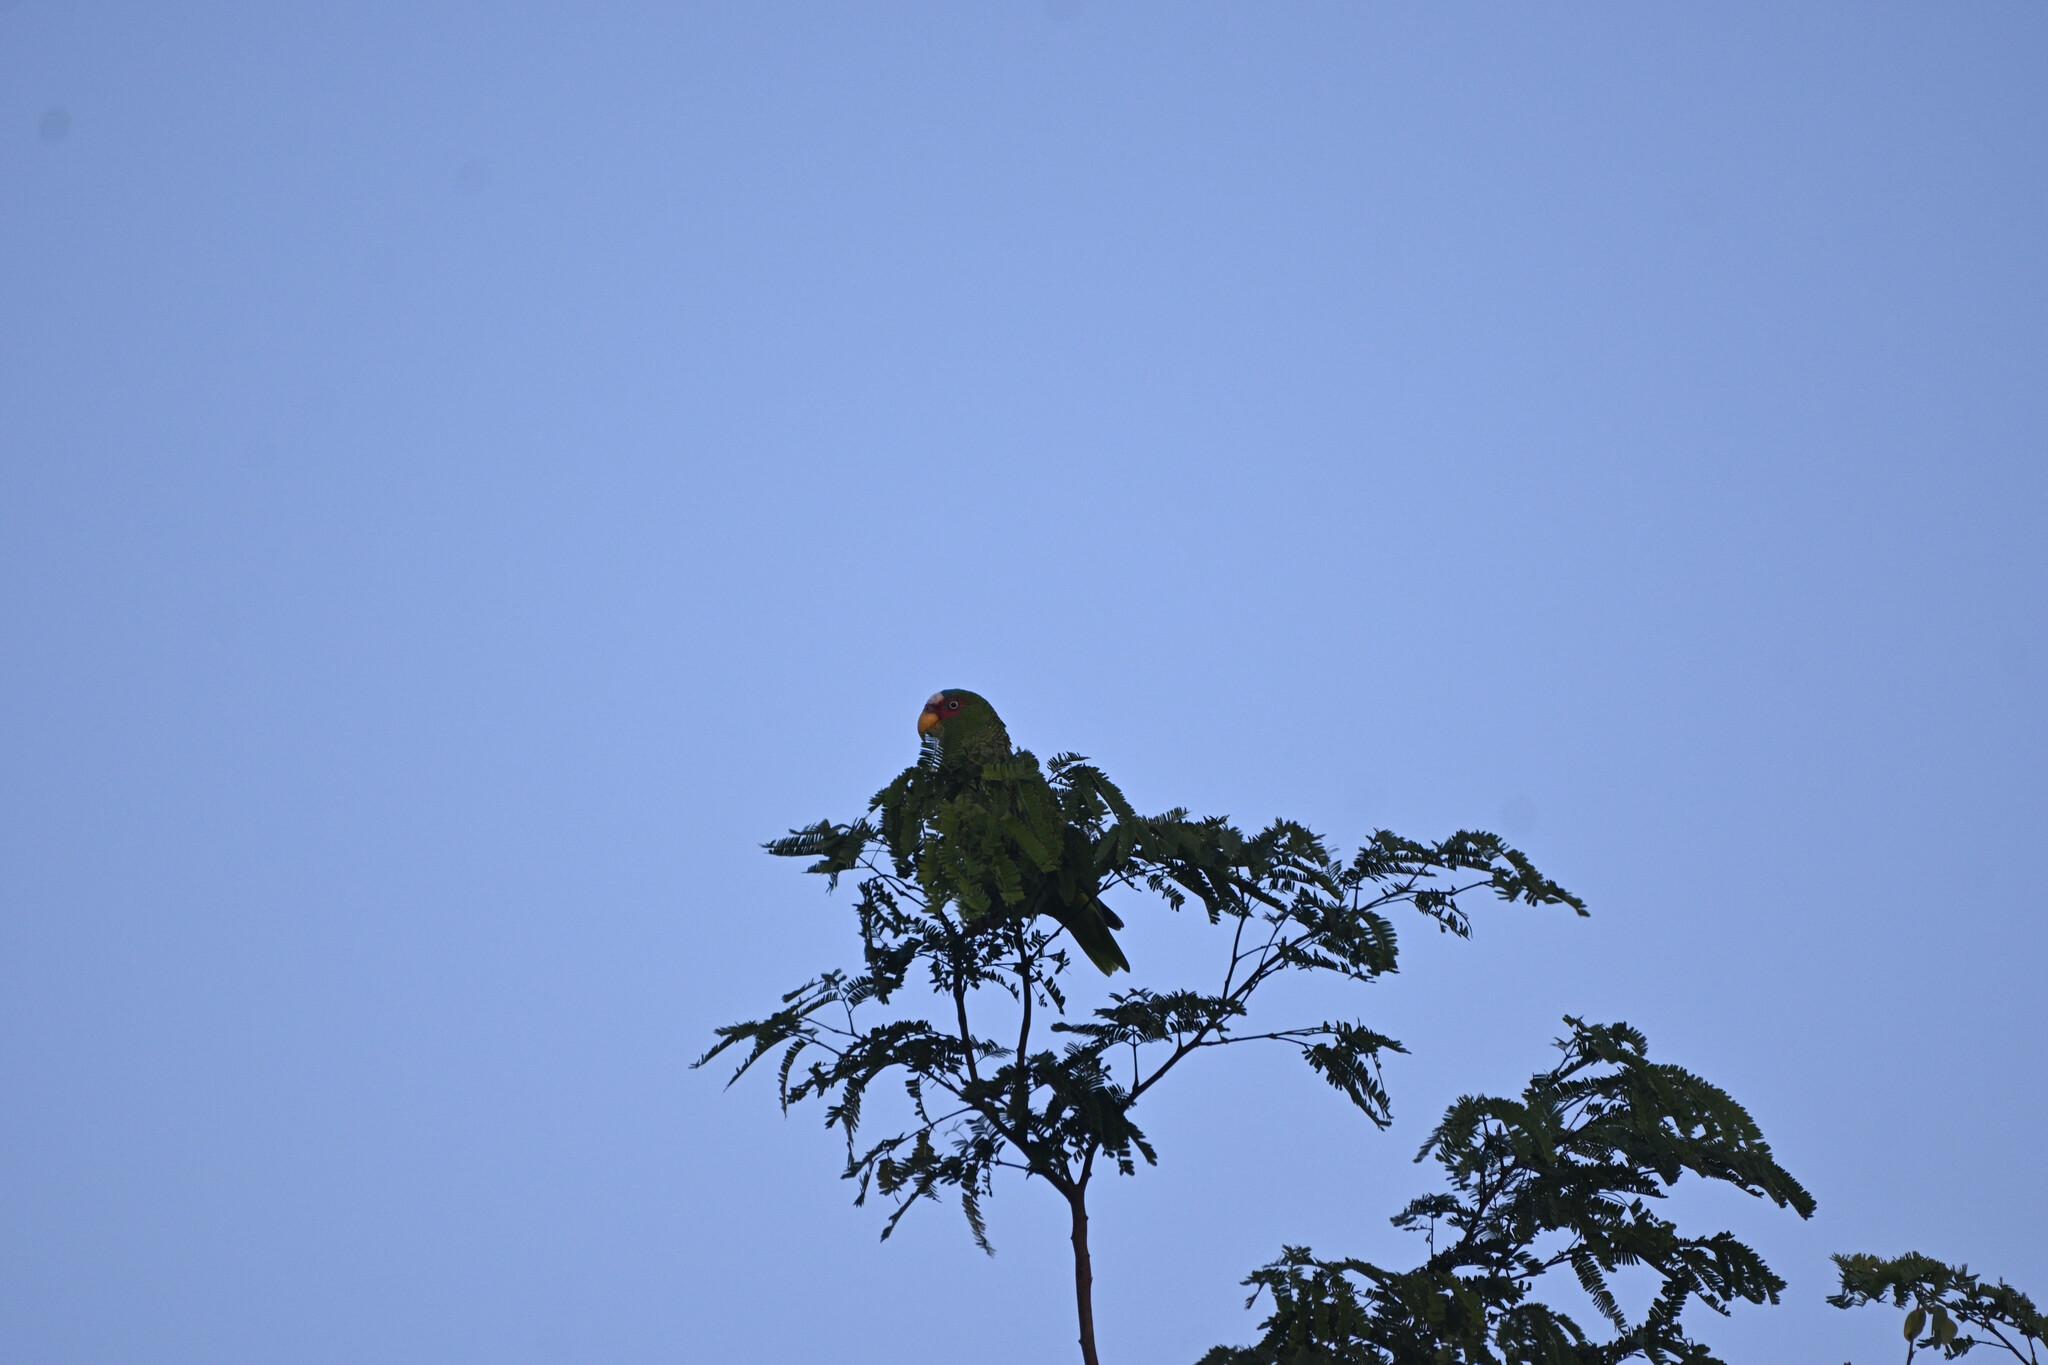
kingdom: Animalia
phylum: Chordata
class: Aves
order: Psittaciformes
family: Psittacidae
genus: Amazona
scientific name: Amazona albifrons
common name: White-fronted amazon
